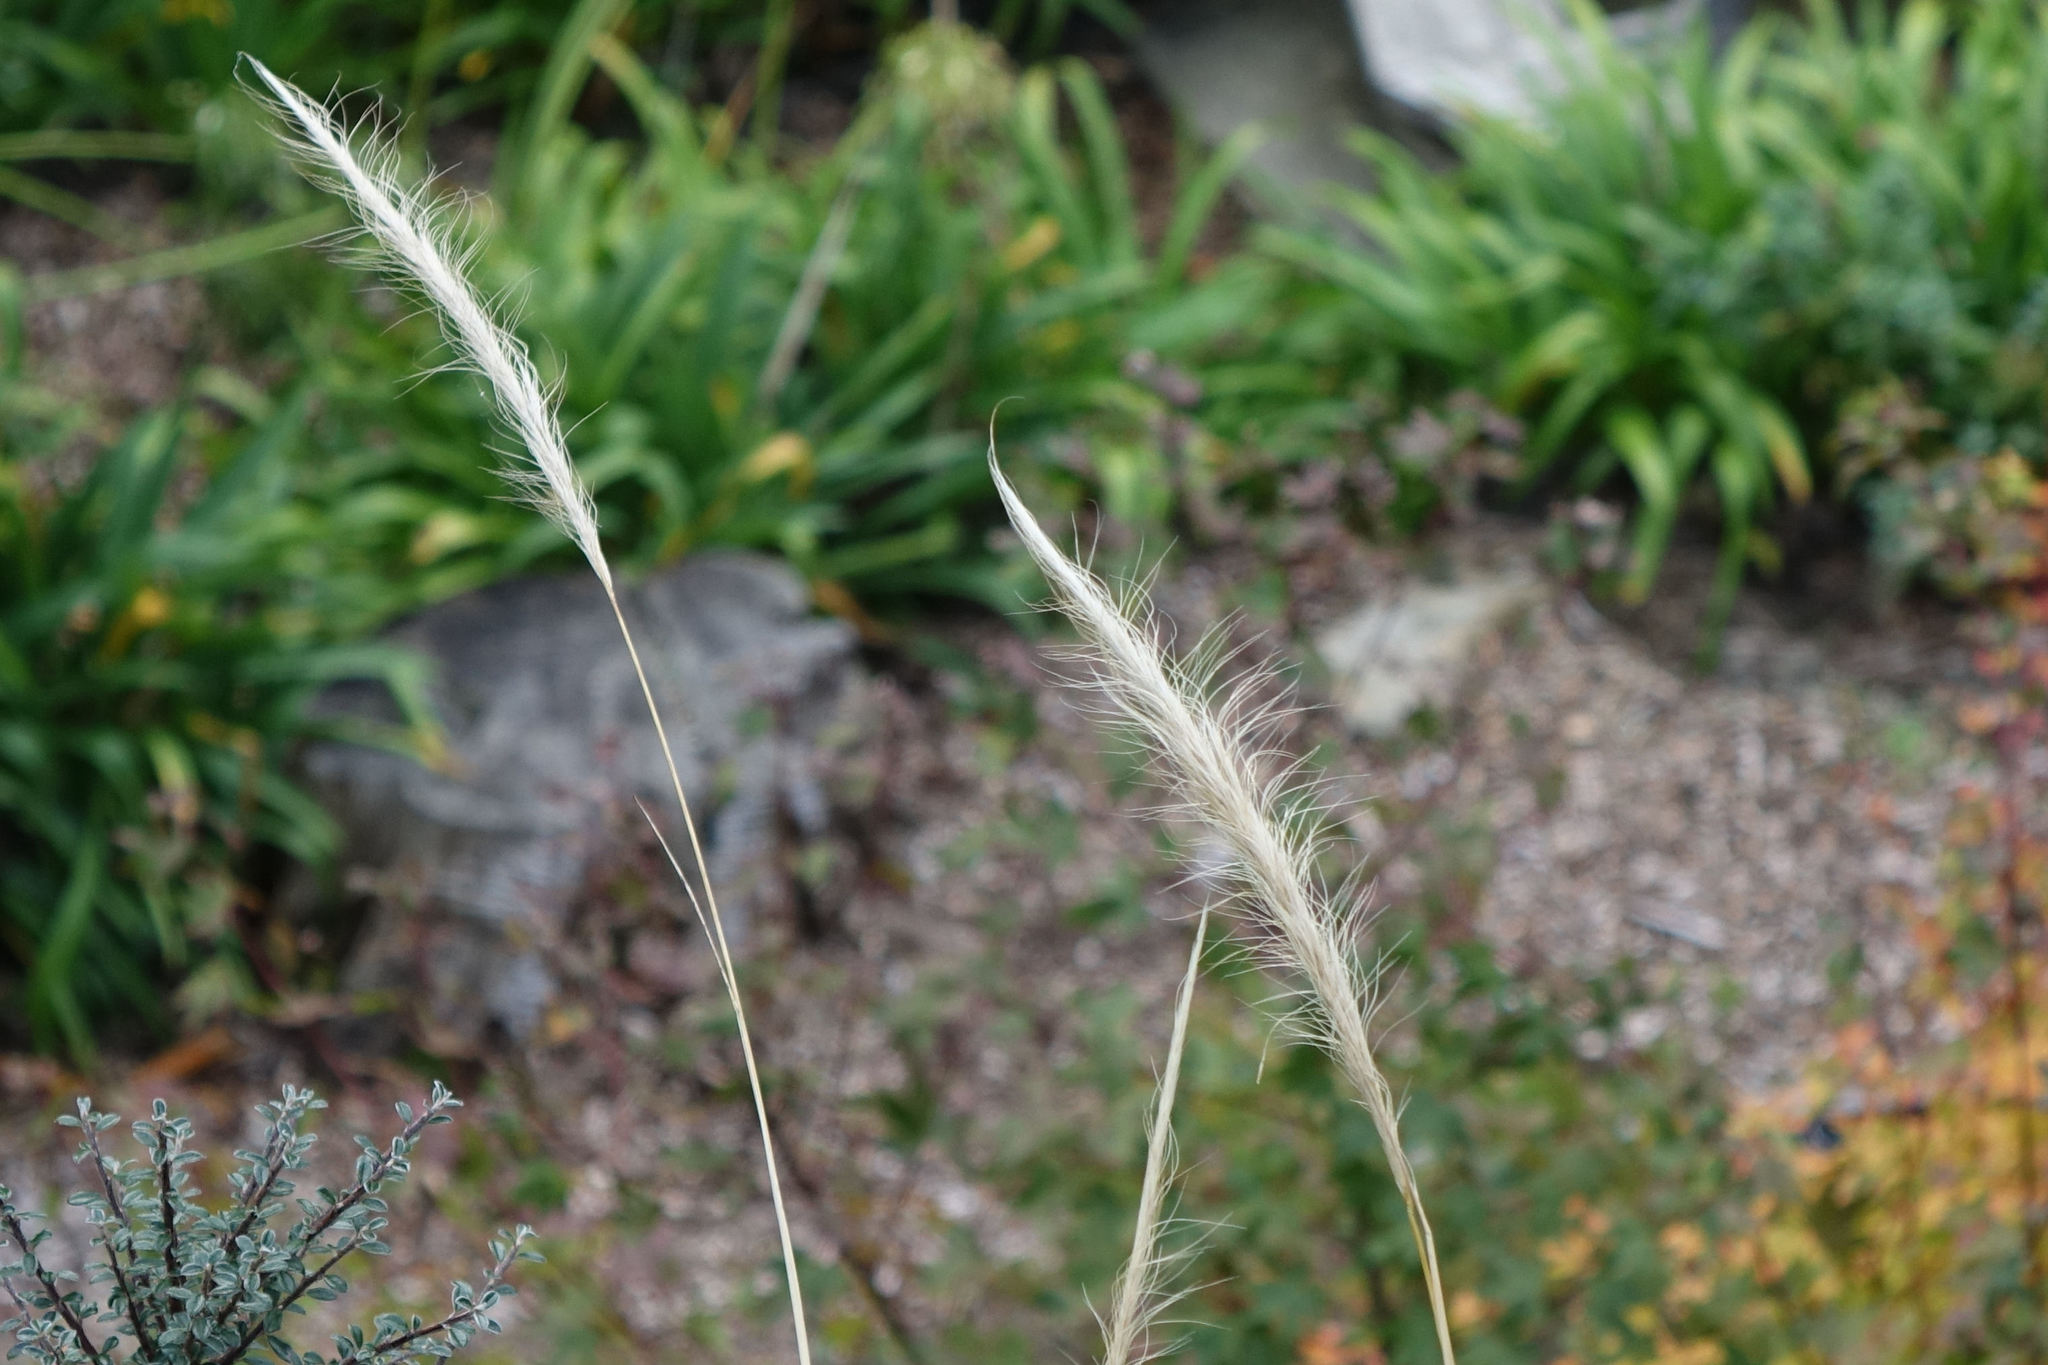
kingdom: Plantae
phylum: Tracheophyta
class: Liliopsida
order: Poales
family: Poaceae
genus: Dichelachne
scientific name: Dichelachne crinita
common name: Clovenfoot plumegrass
